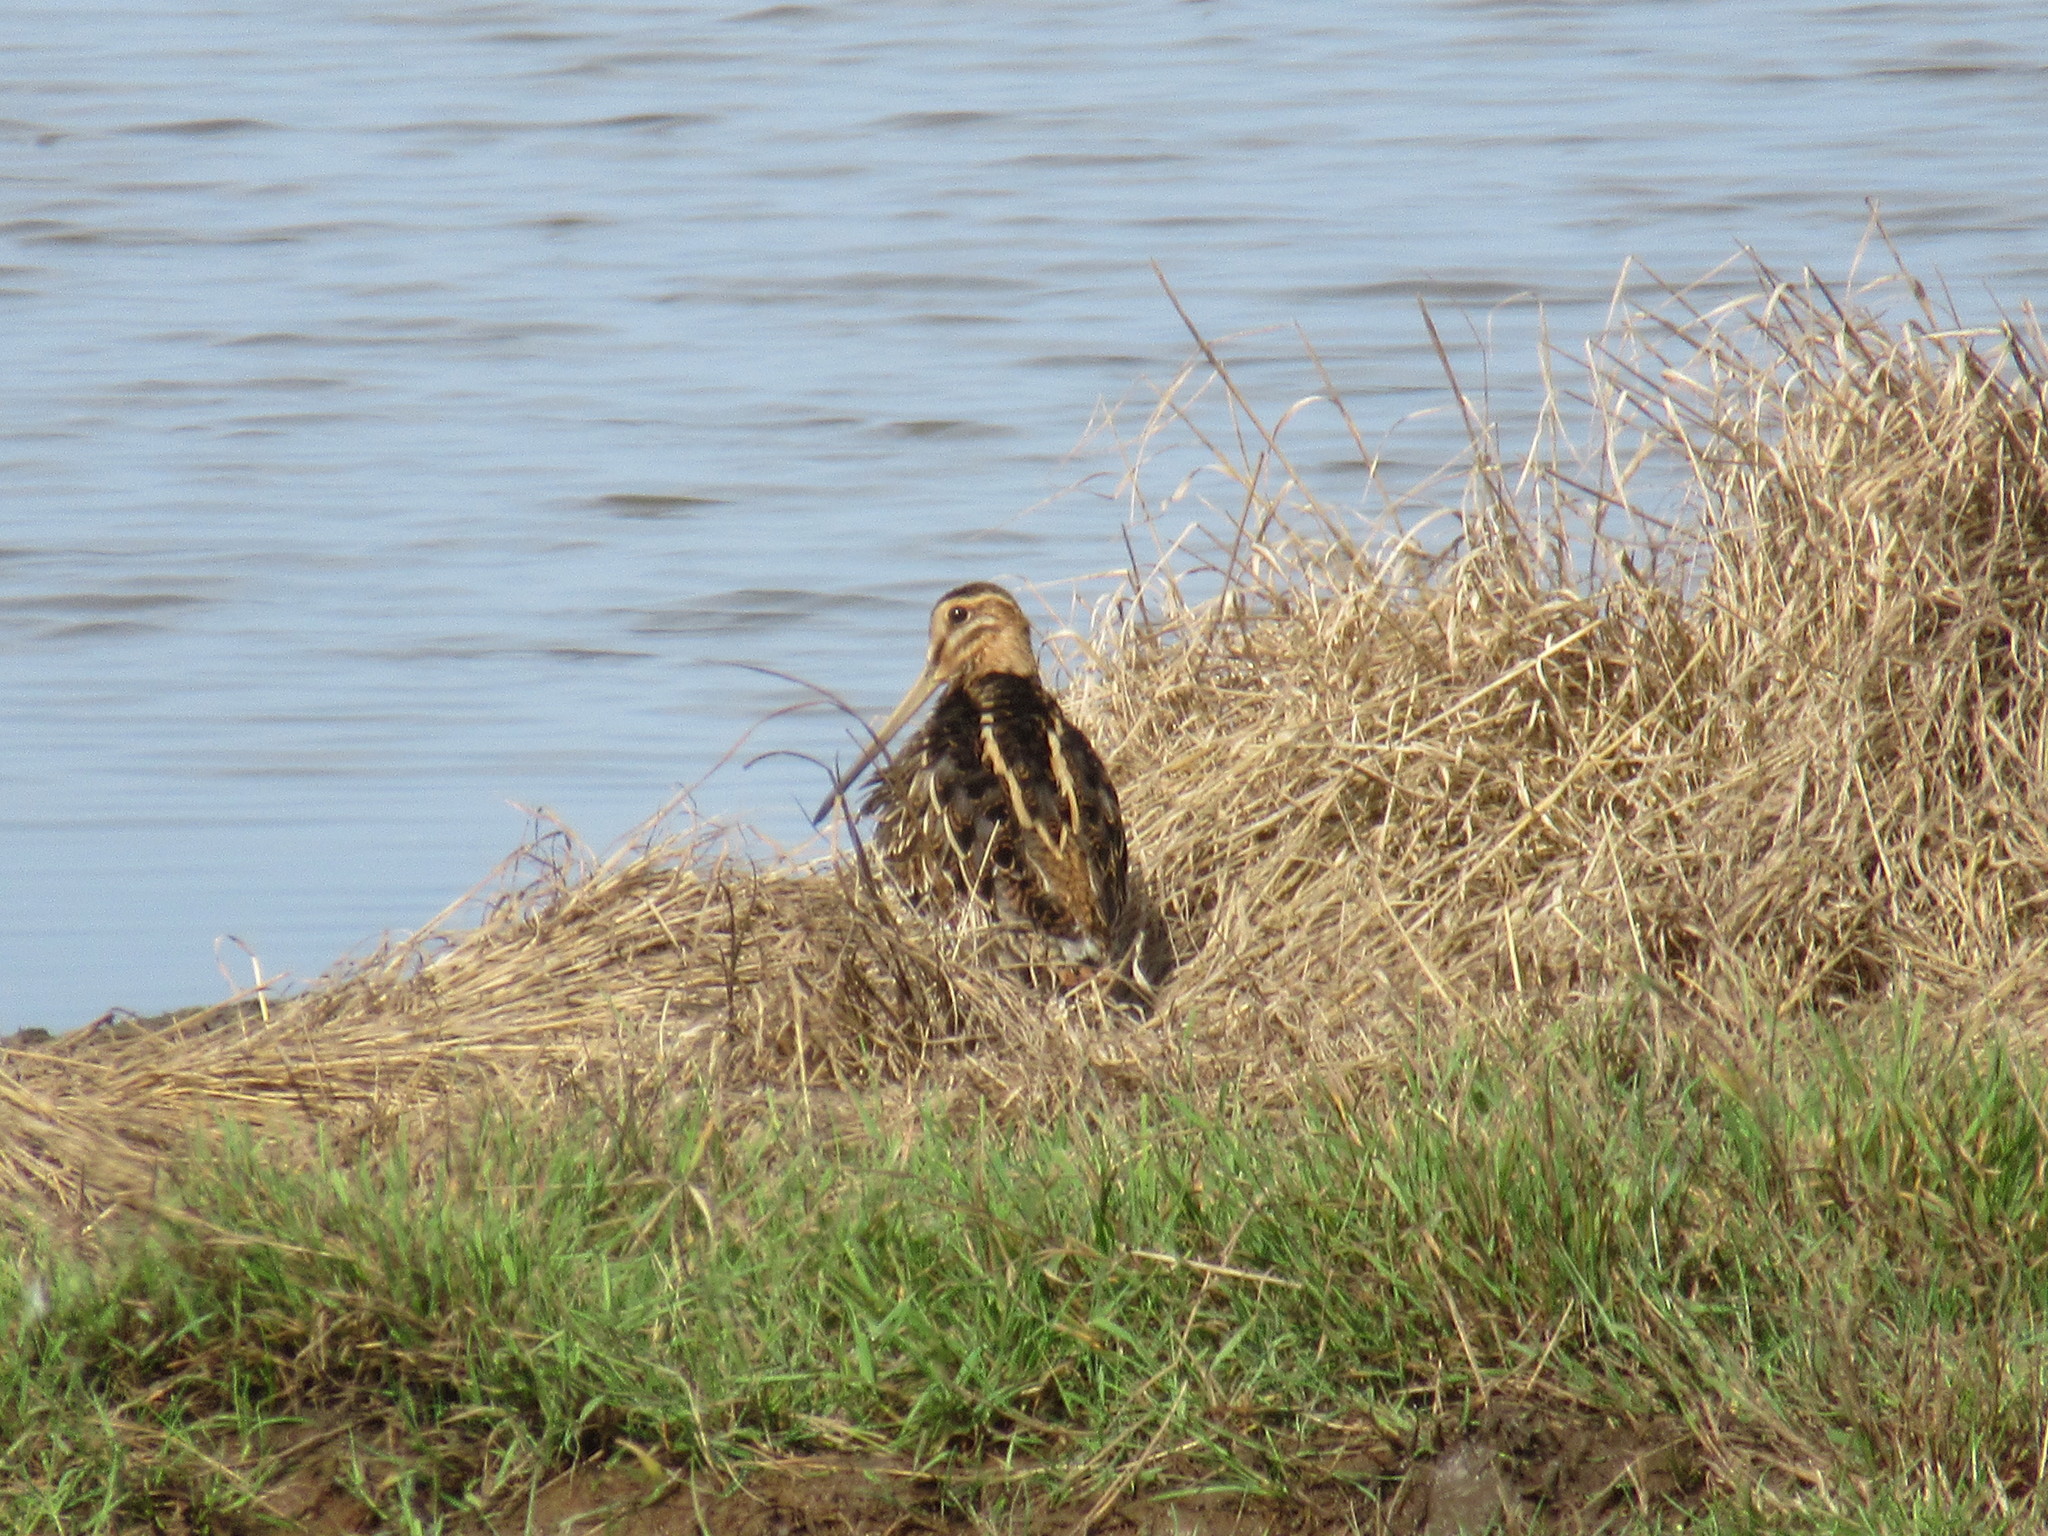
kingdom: Animalia
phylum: Chordata
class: Aves
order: Charadriiformes
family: Scolopacidae
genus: Gallinago
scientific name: Gallinago gallinago
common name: Common snipe
